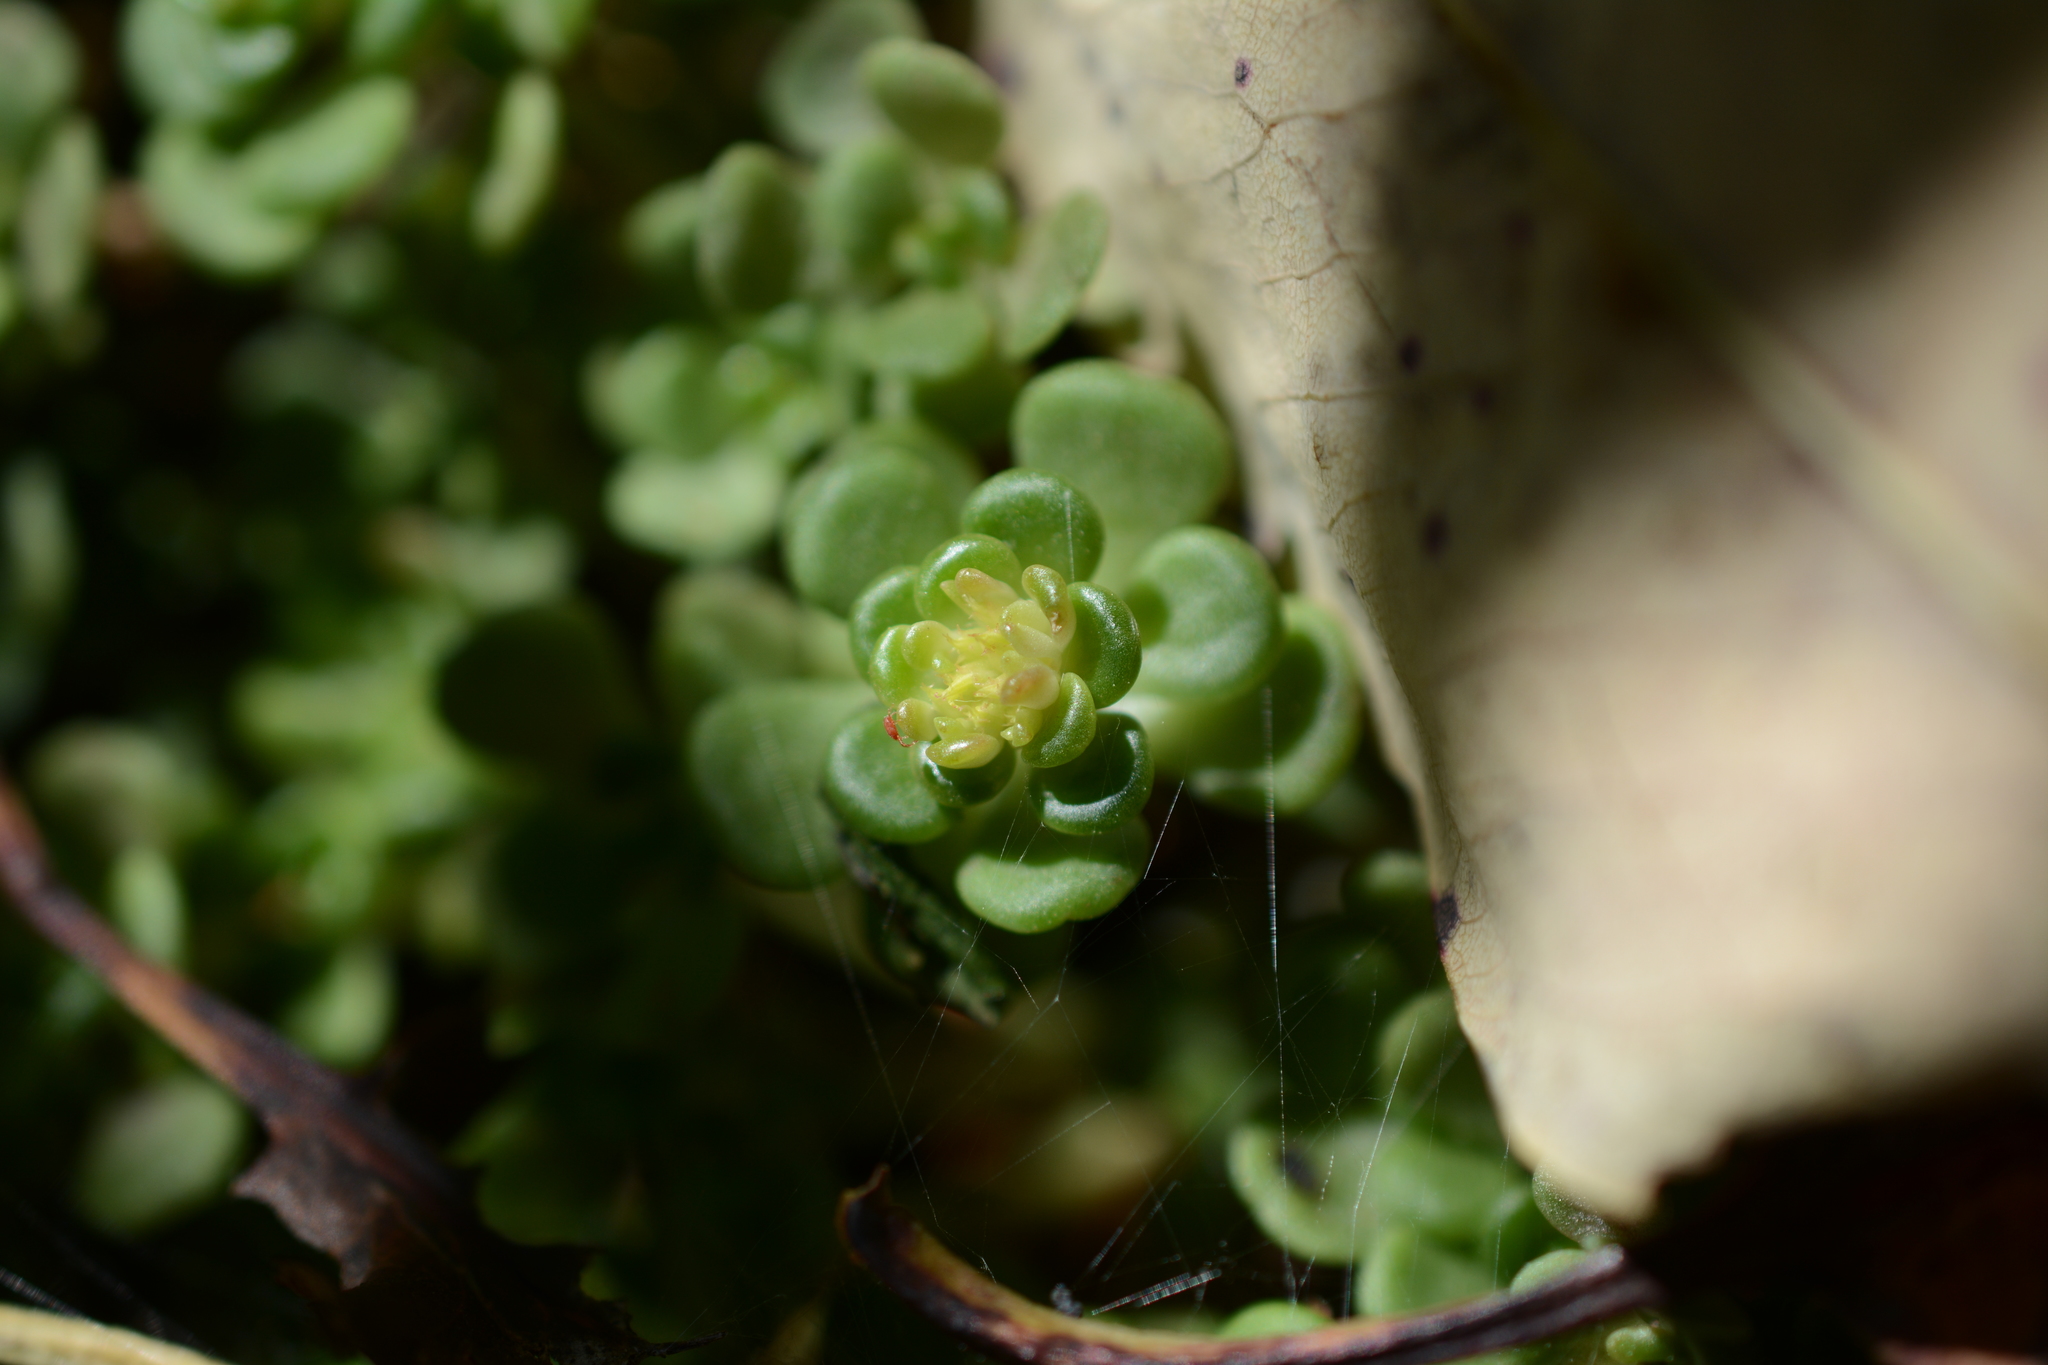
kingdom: Plantae
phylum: Tracheophyta
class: Magnoliopsida
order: Saxifragales
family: Crassulaceae
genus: Sedum
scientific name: Sedum oreganum
